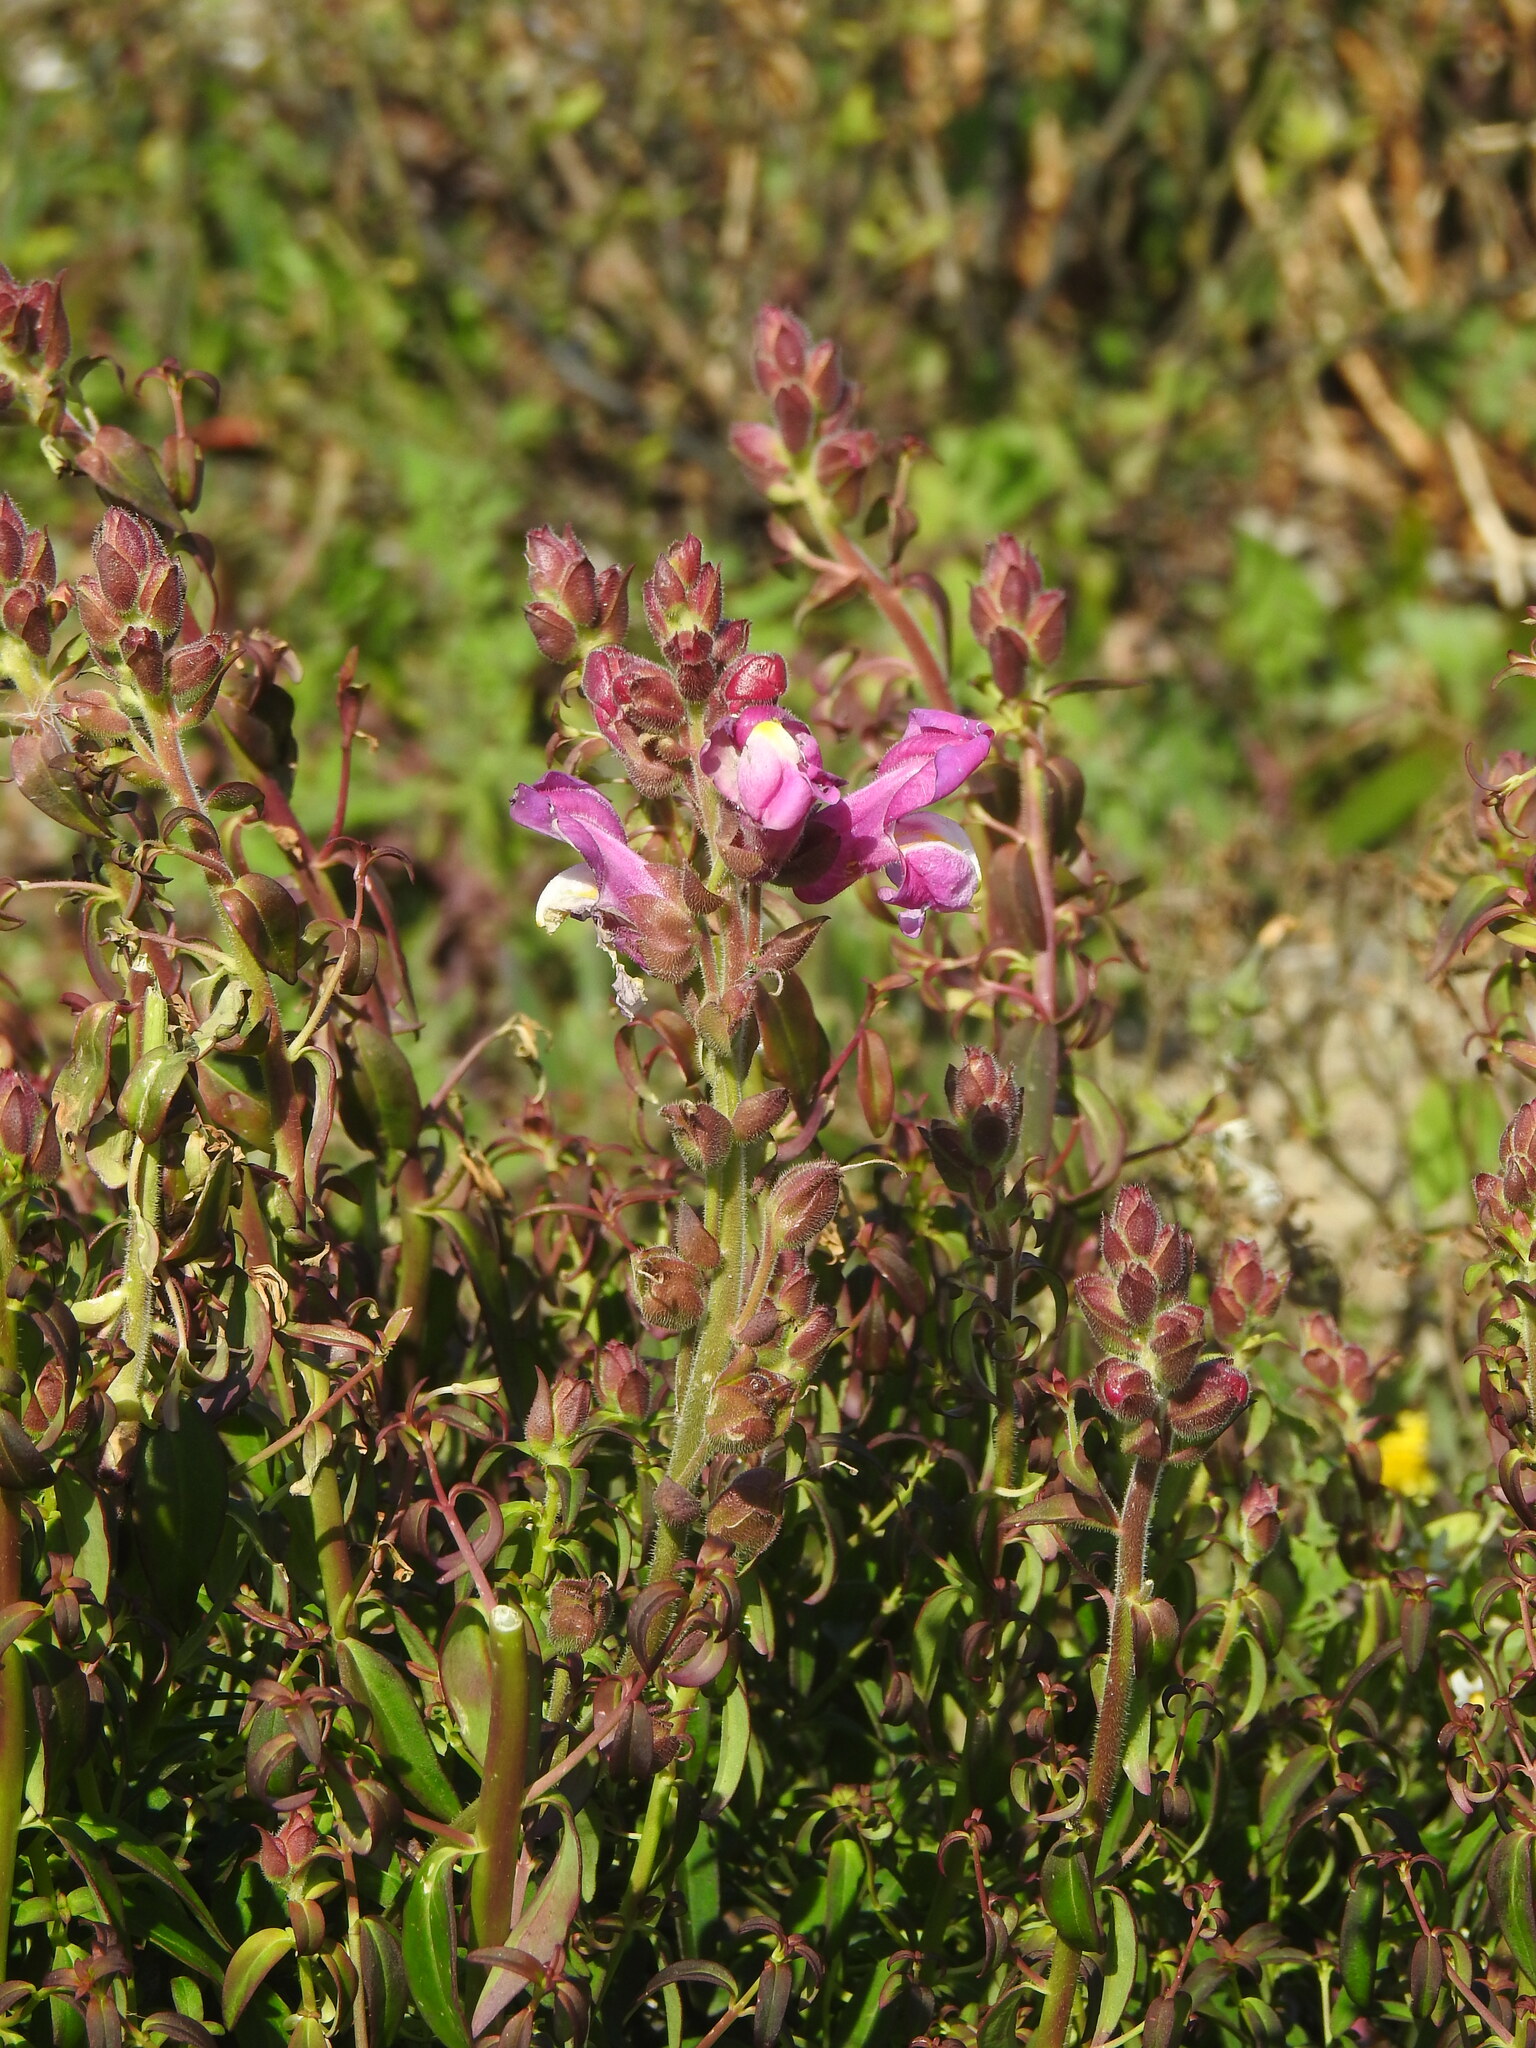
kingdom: Plantae
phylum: Tracheophyta
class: Magnoliopsida
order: Lamiales
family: Plantaginaceae
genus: Antirrhinum
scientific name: Antirrhinum cirrhigerum
